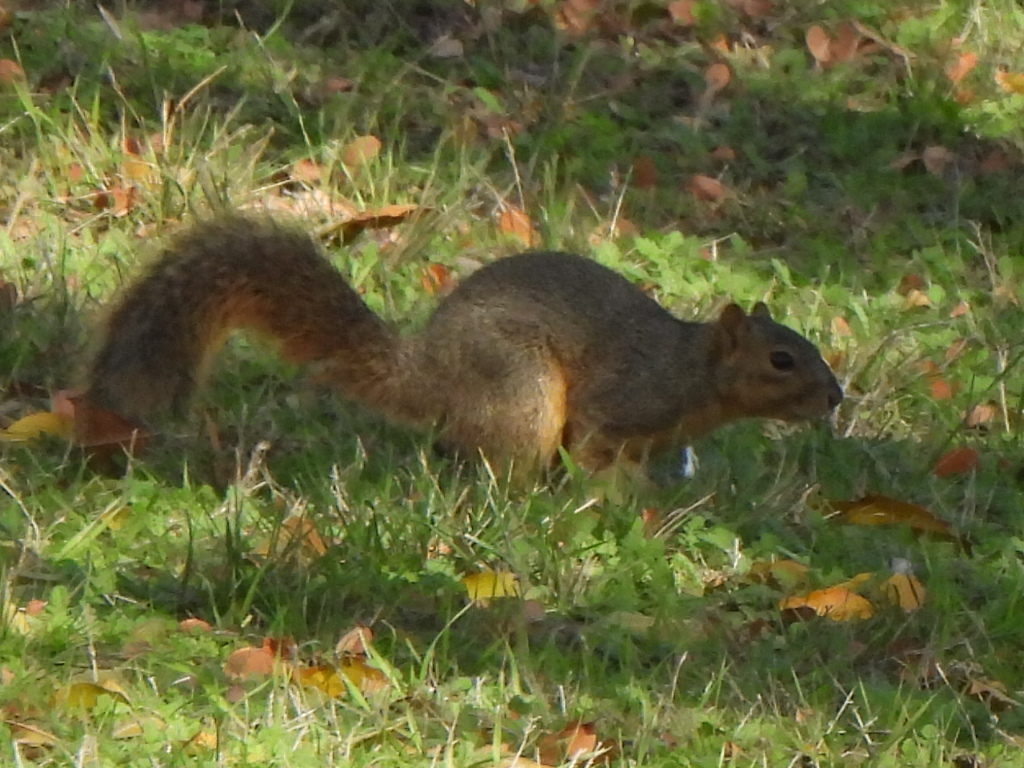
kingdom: Animalia
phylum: Chordata
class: Mammalia
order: Rodentia
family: Sciuridae
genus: Sciurus
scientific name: Sciurus niger
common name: Fox squirrel
